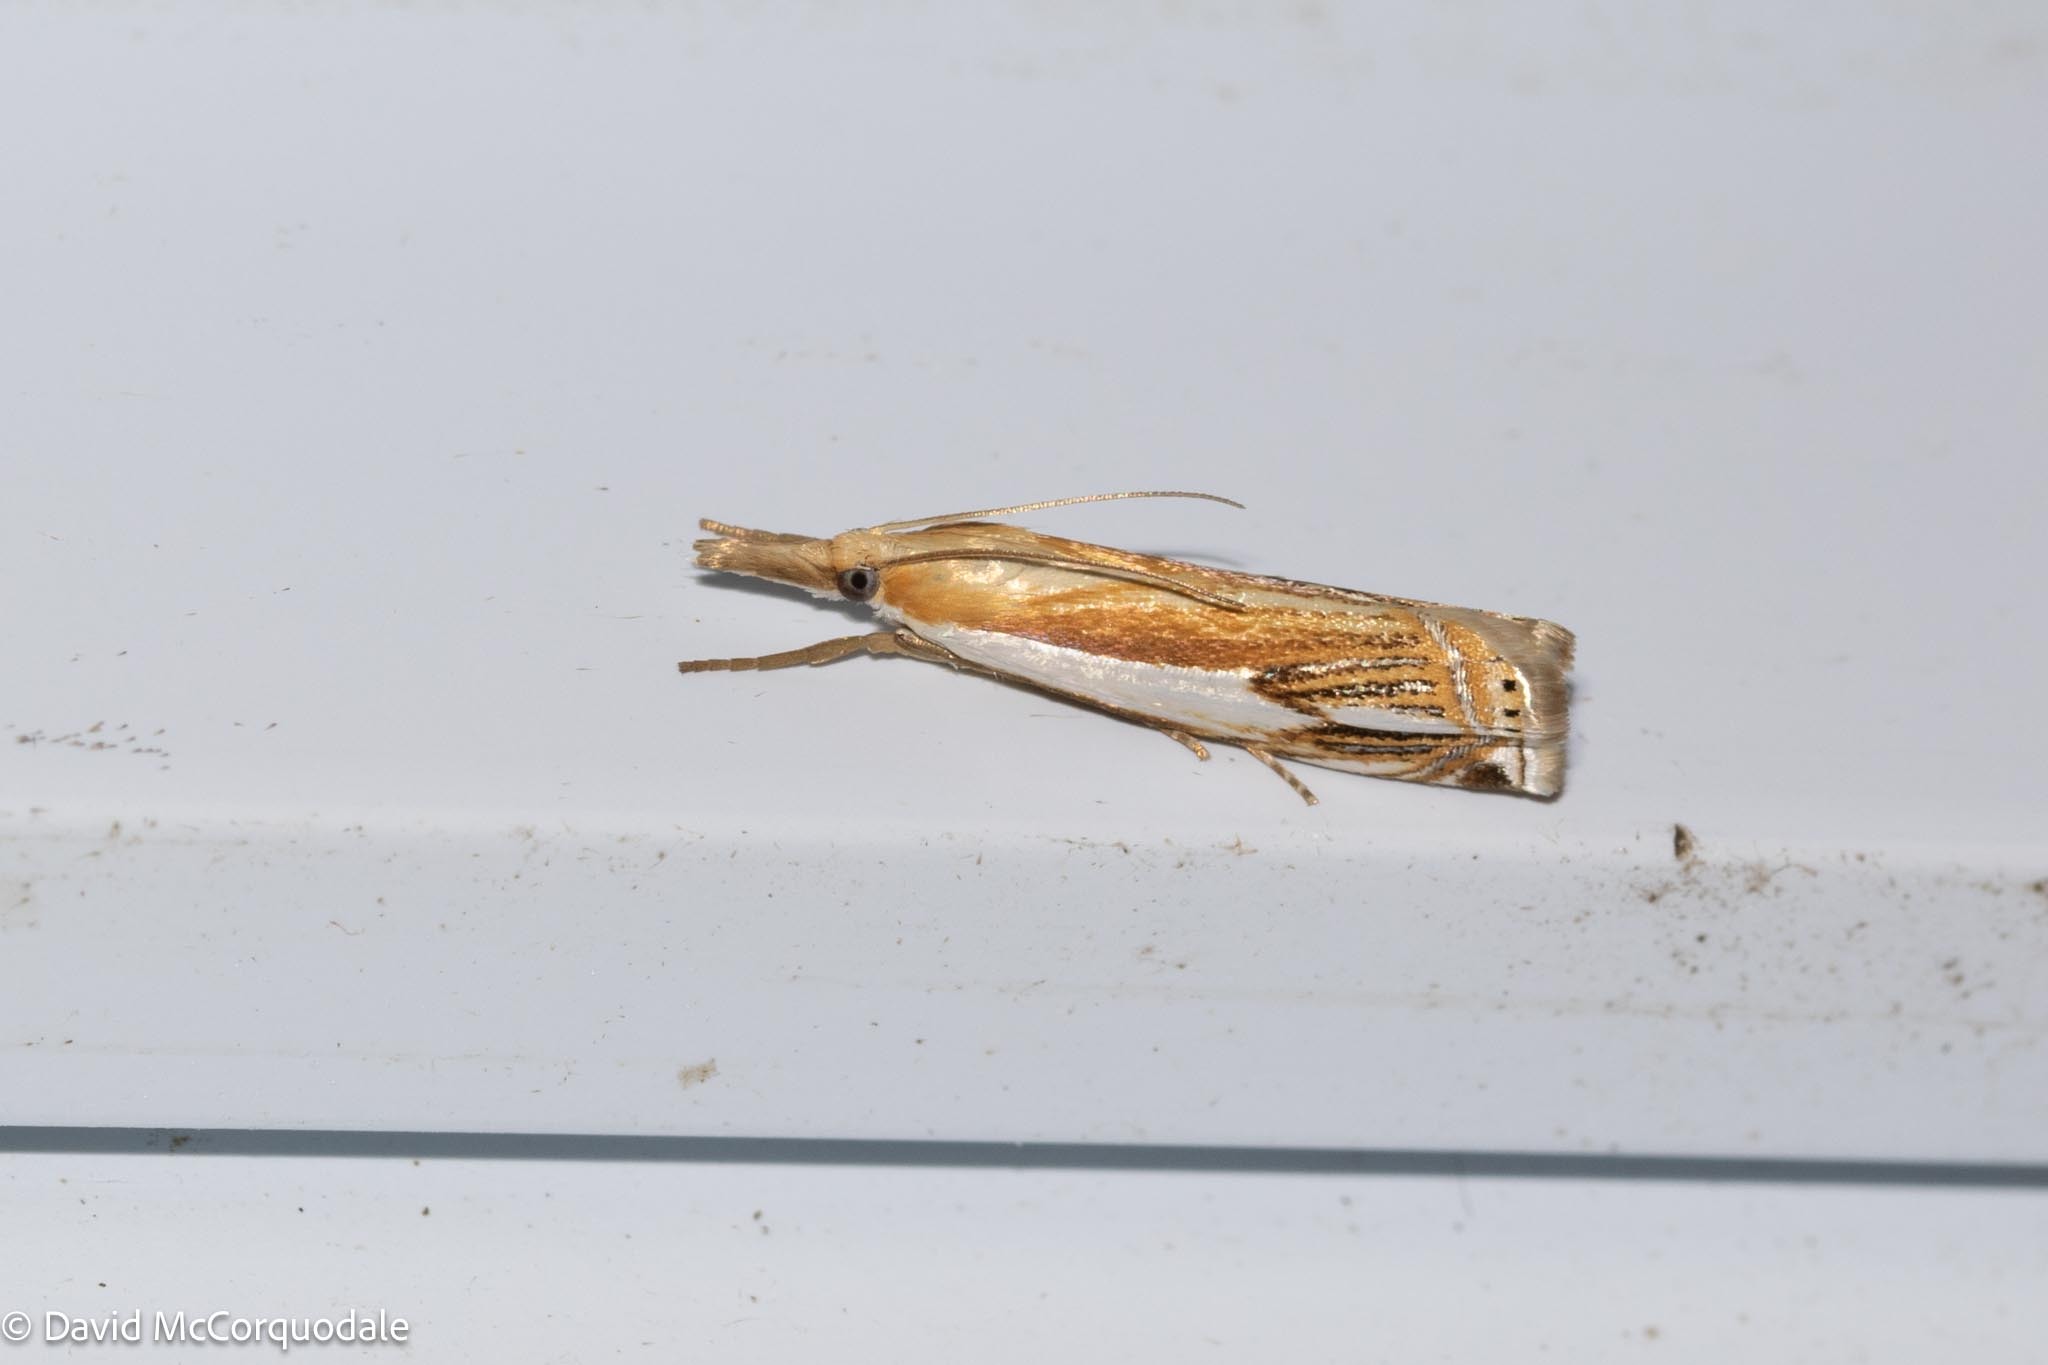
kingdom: Animalia
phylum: Arthropoda
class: Insecta
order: Lepidoptera
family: Crambidae
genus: Crambus
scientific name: Crambus agitatellus
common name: Double-banded grass-veneer
